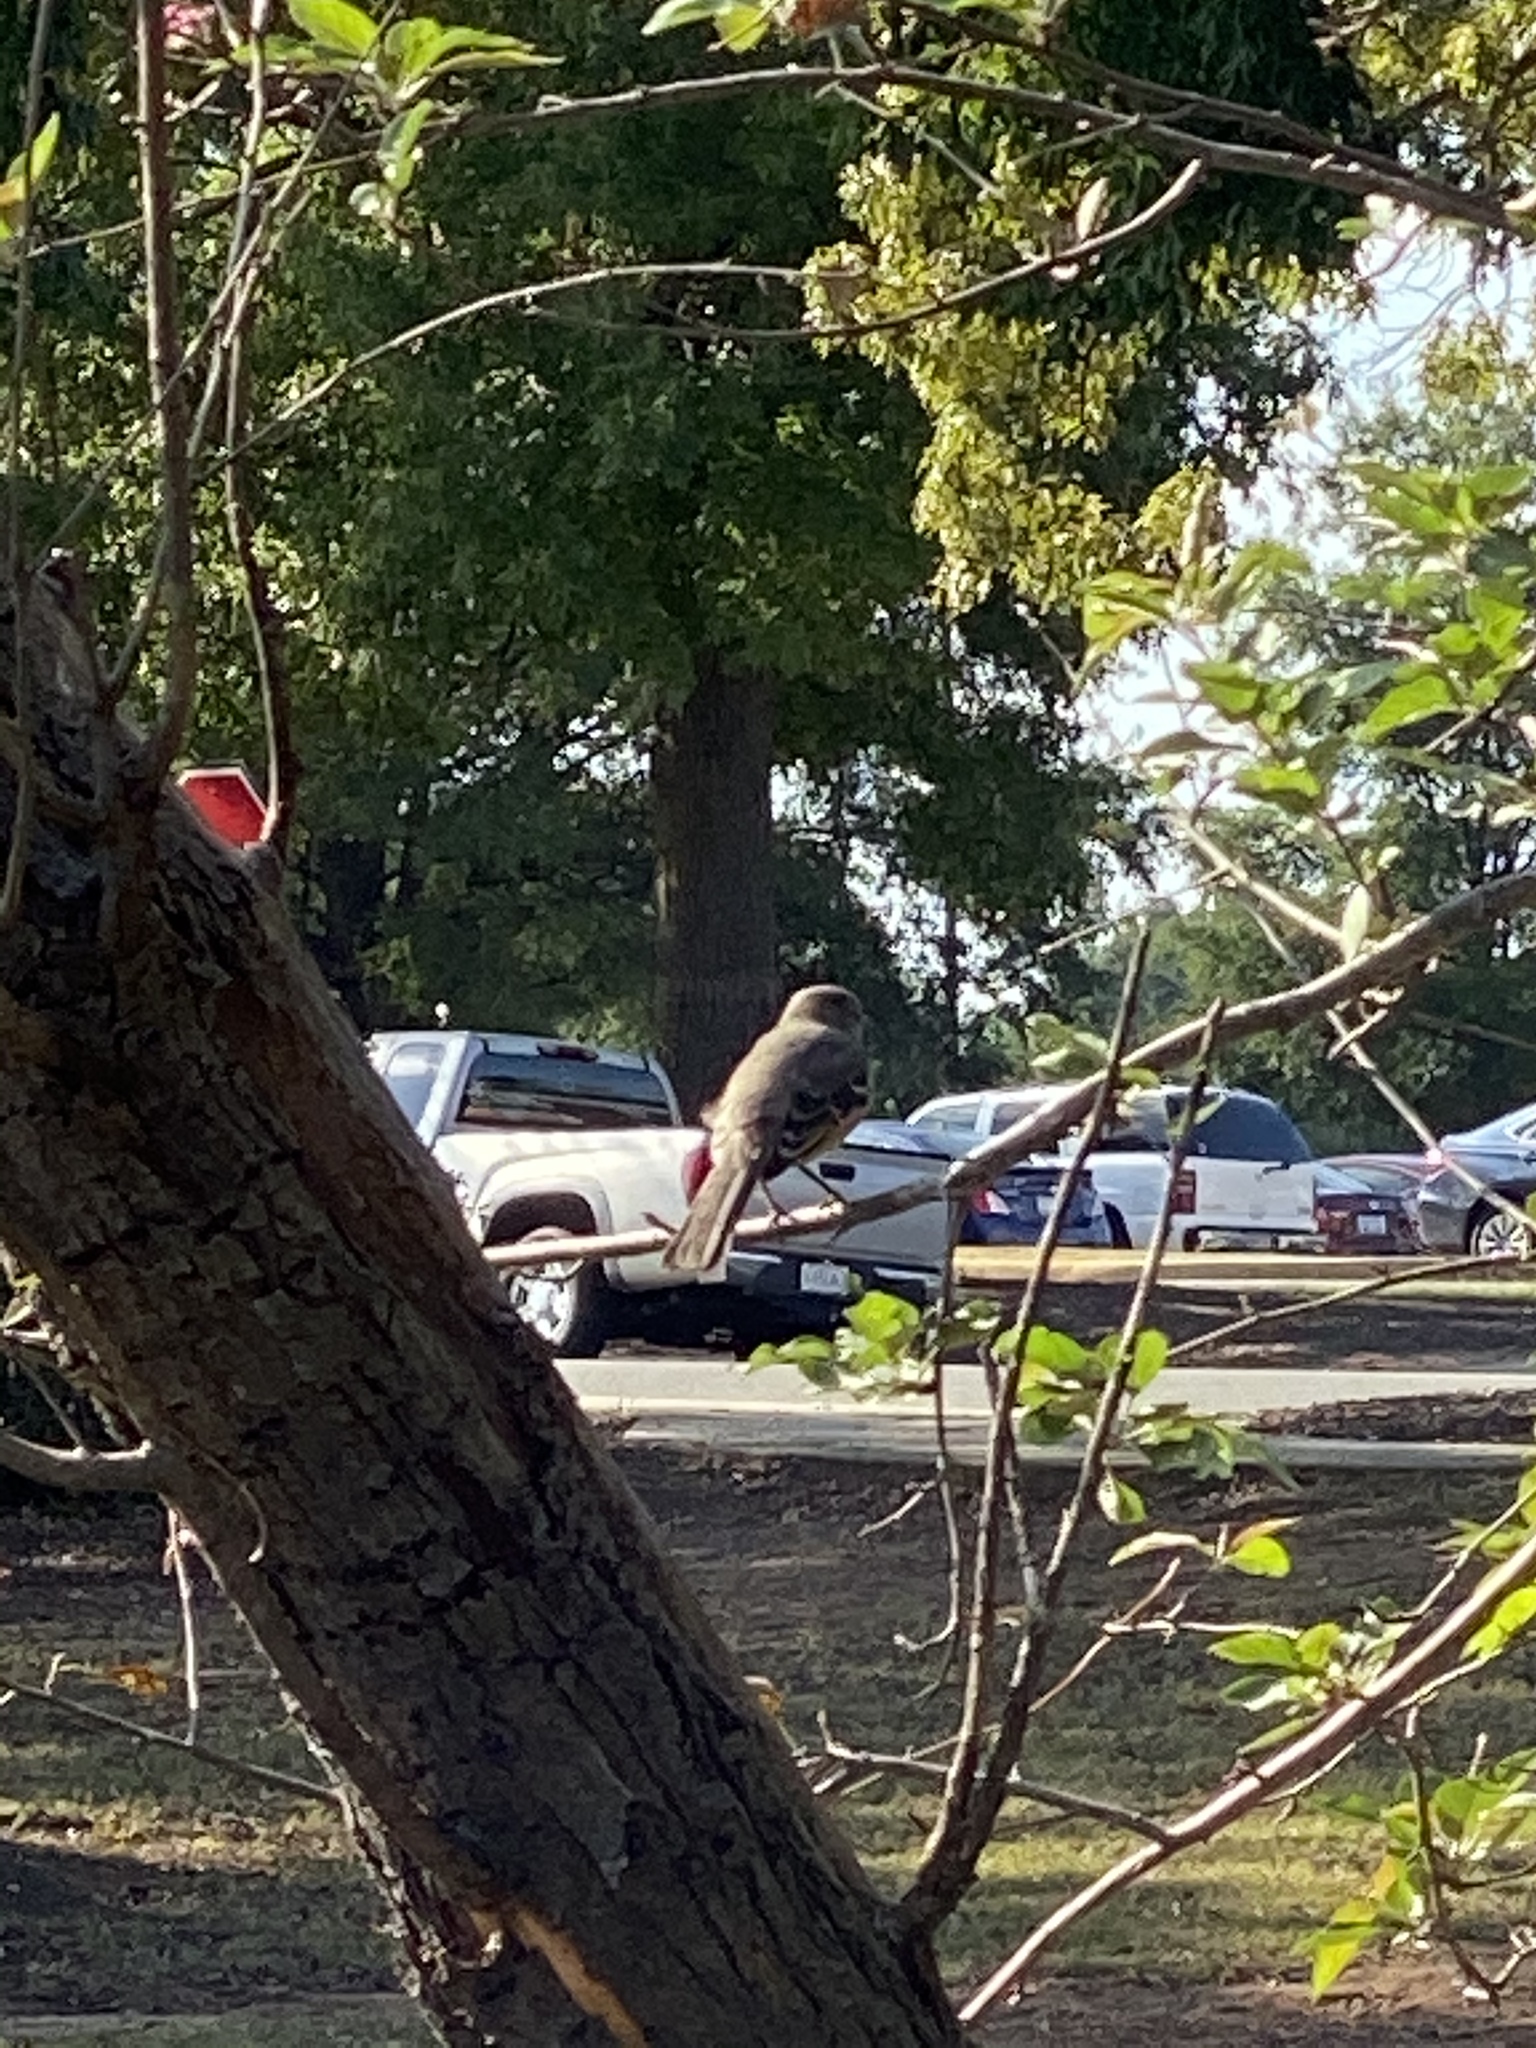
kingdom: Animalia
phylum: Chordata
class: Aves
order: Passeriformes
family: Mimidae
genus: Mimus
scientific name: Mimus polyglottos
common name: Northern mockingbird
